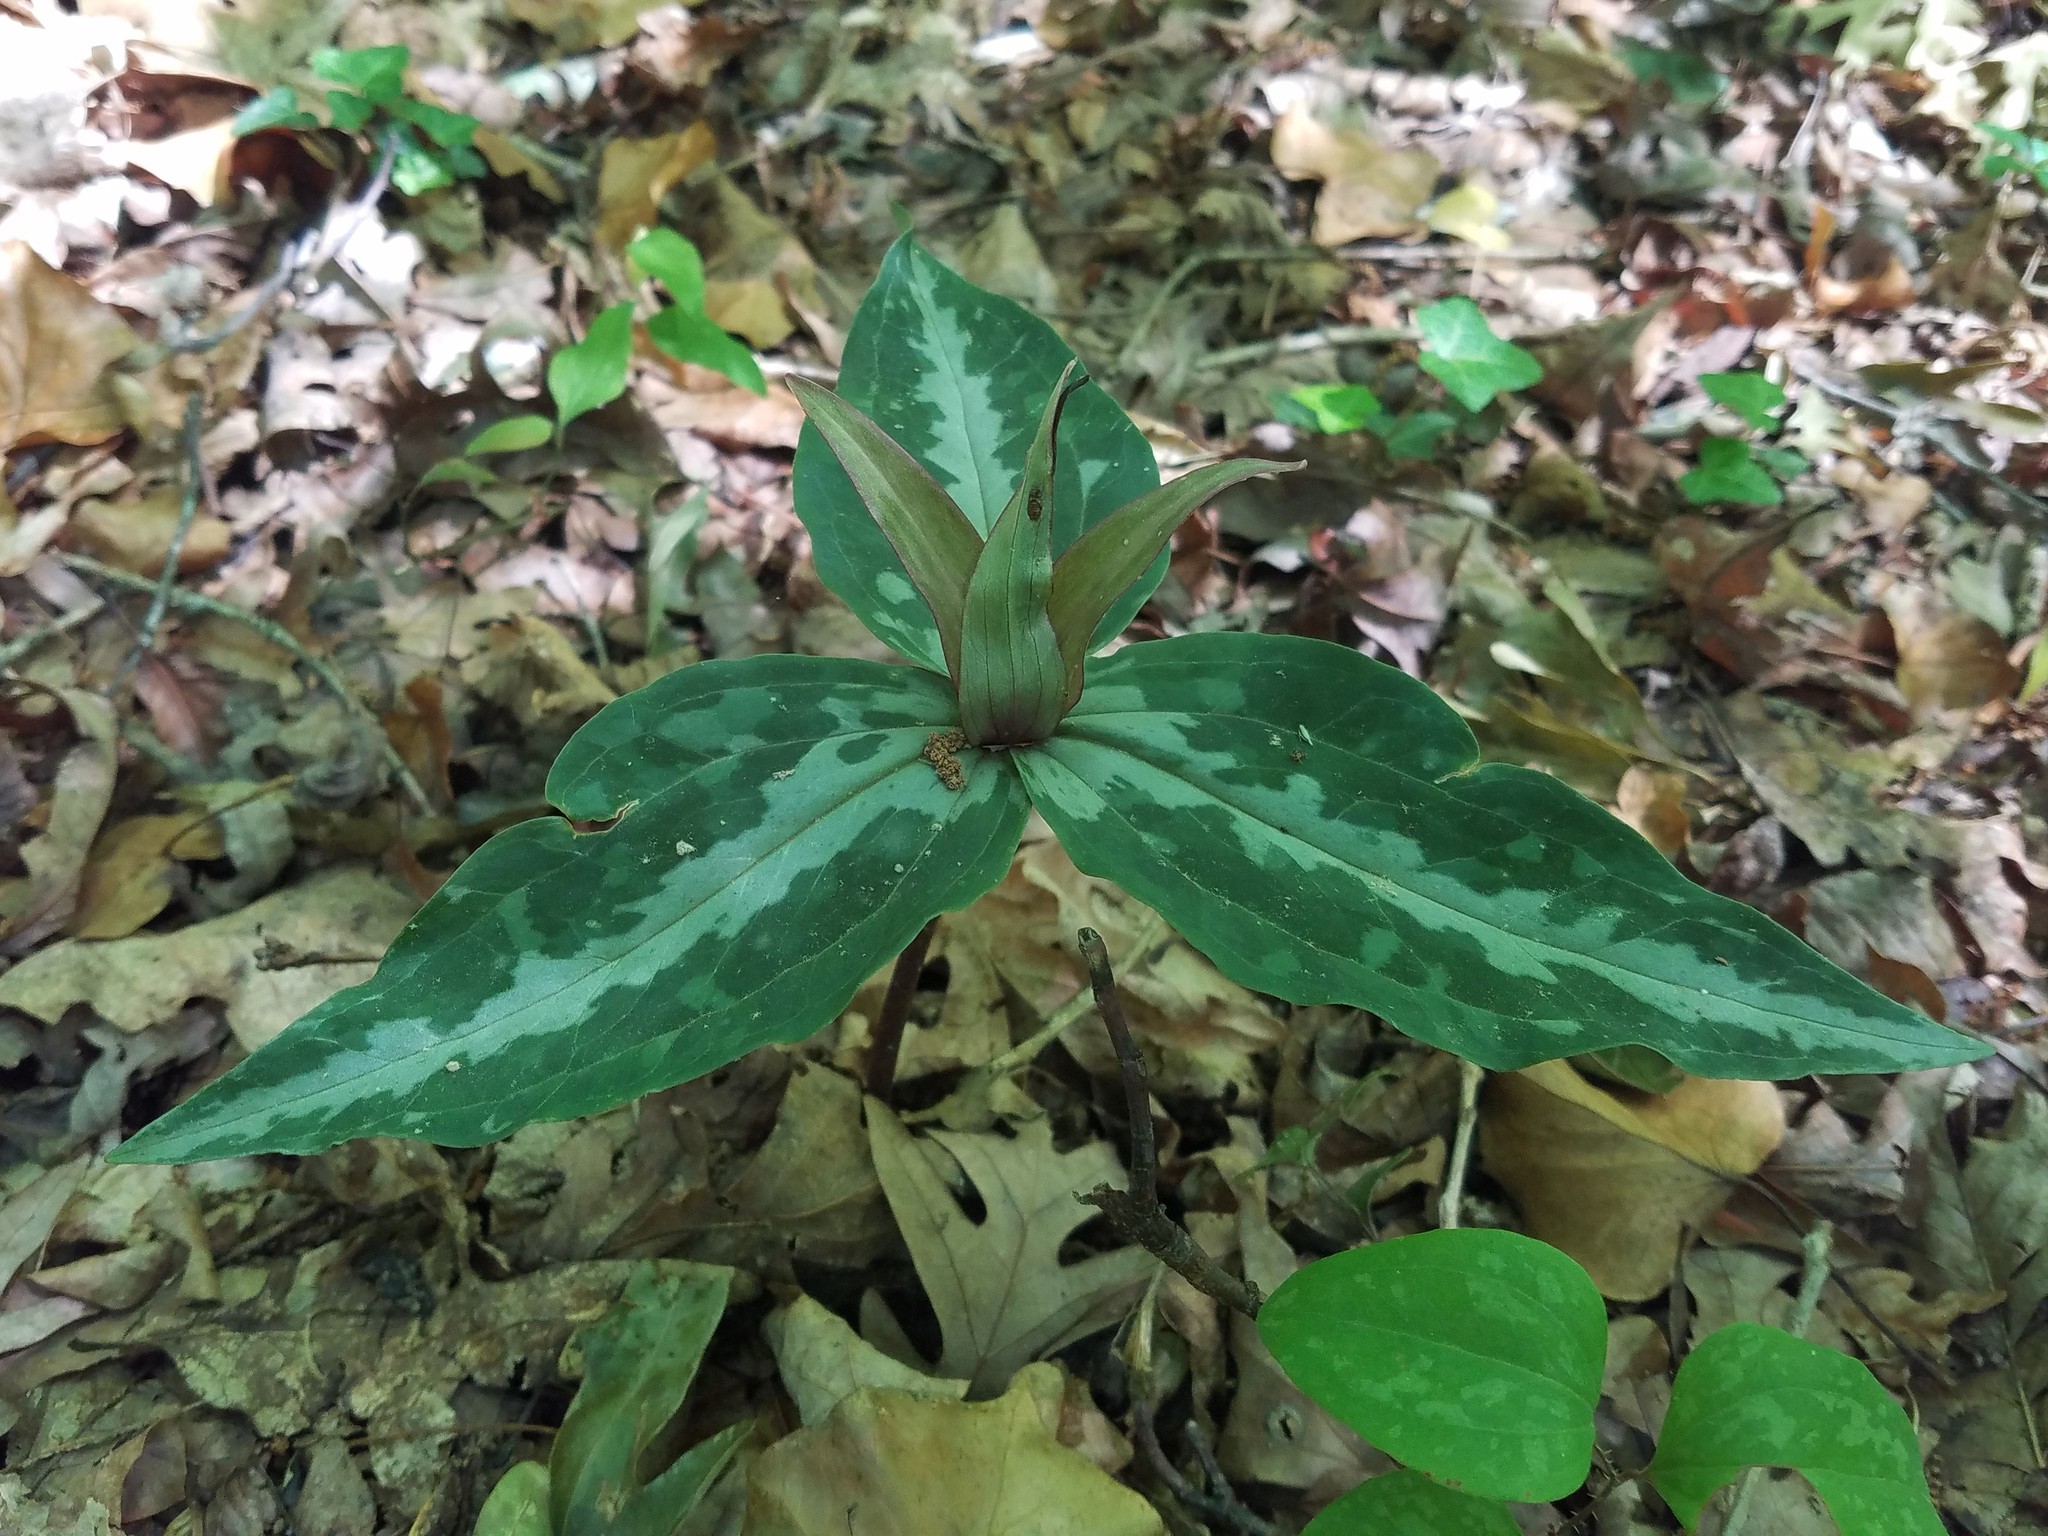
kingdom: Plantae
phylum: Tracheophyta
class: Liliopsida
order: Liliales
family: Melanthiaceae
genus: Trillium
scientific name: Trillium underwoodii
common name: Longbract wakerobin
